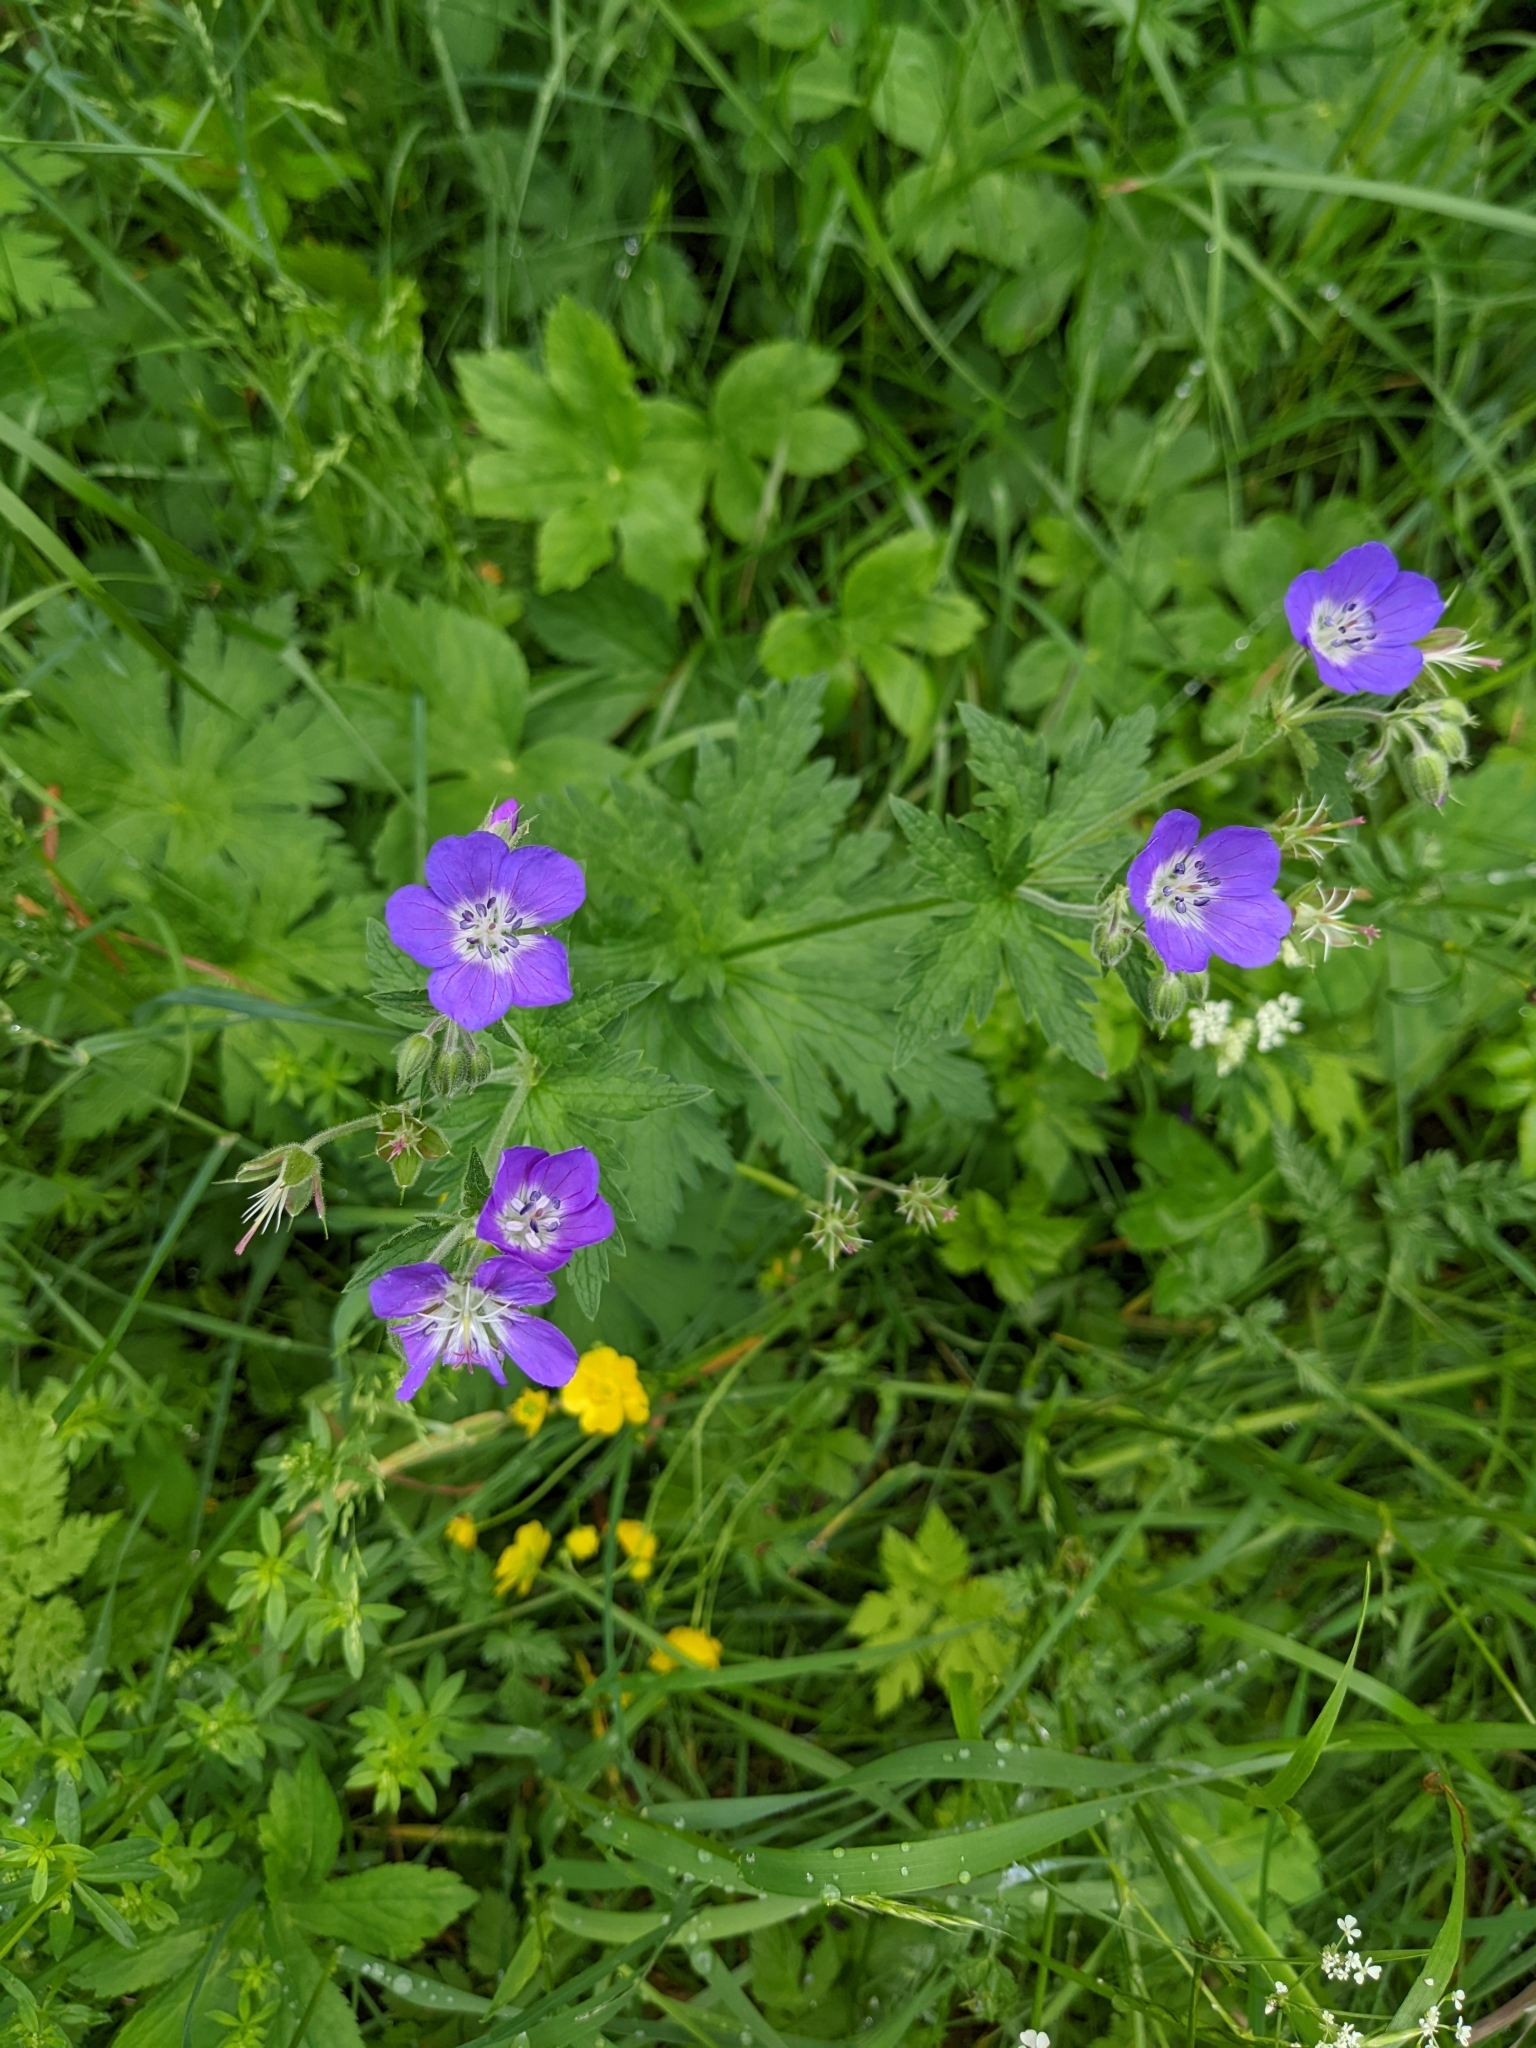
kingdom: Plantae
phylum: Tracheophyta
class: Magnoliopsida
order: Geraniales
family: Geraniaceae
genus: Geranium
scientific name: Geranium sylvaticum
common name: Wood crane's-bill
